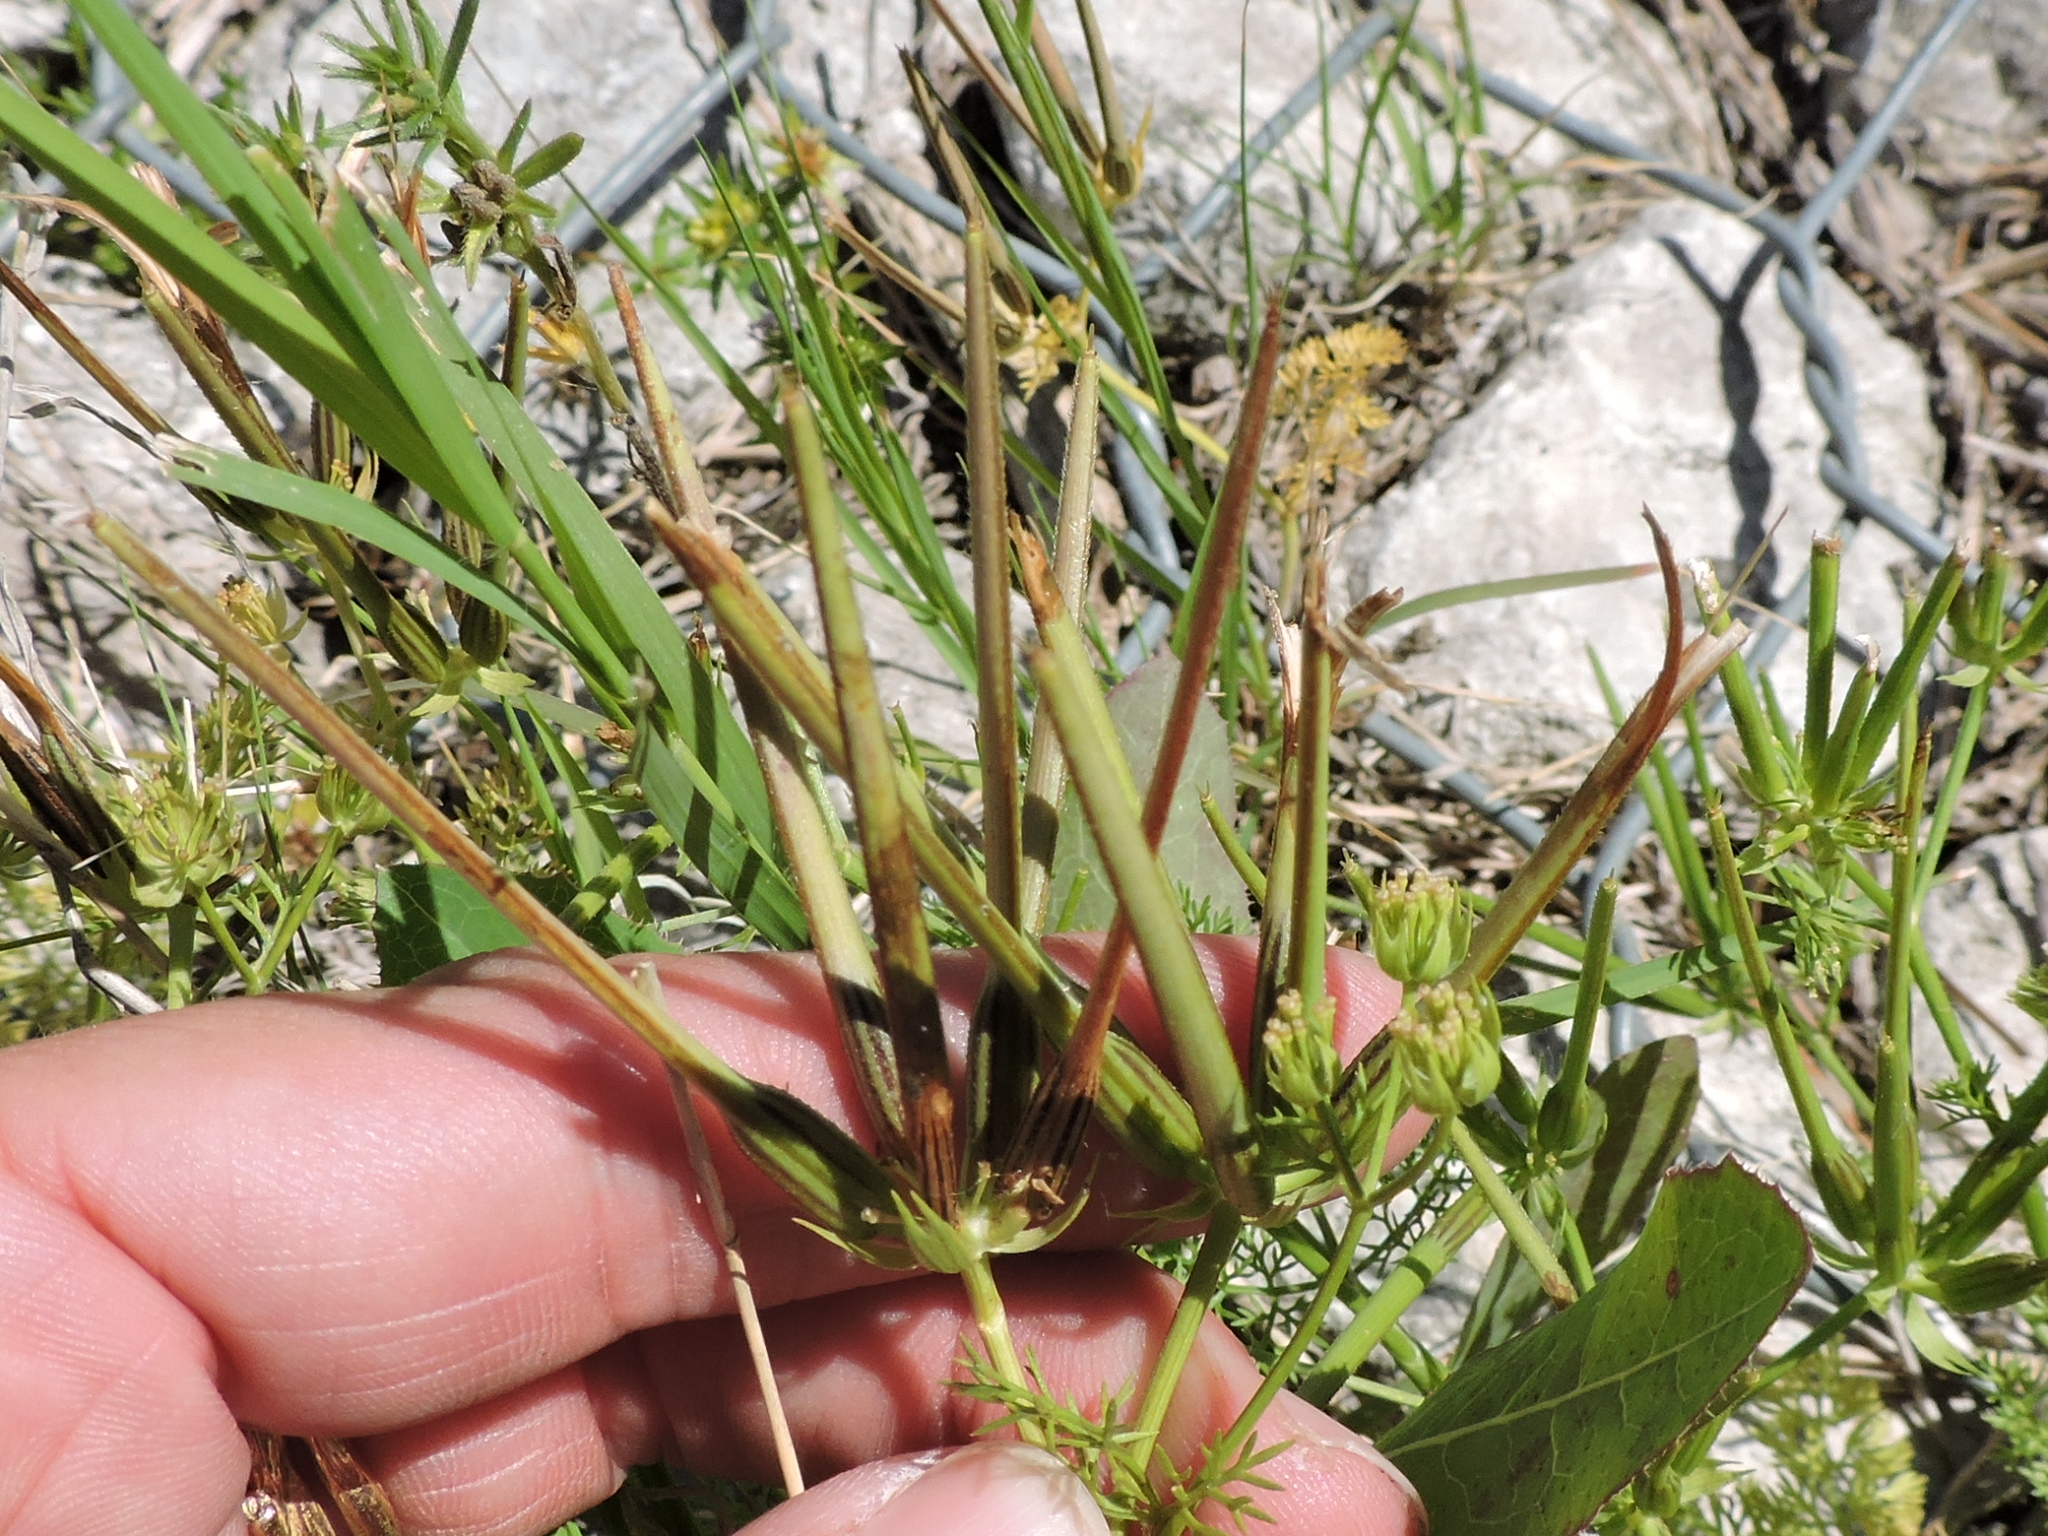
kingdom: Plantae
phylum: Tracheophyta
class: Magnoliopsida
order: Apiales
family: Apiaceae
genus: Scandix
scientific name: Scandix pecten-veneris
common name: Shepherd's-needle
